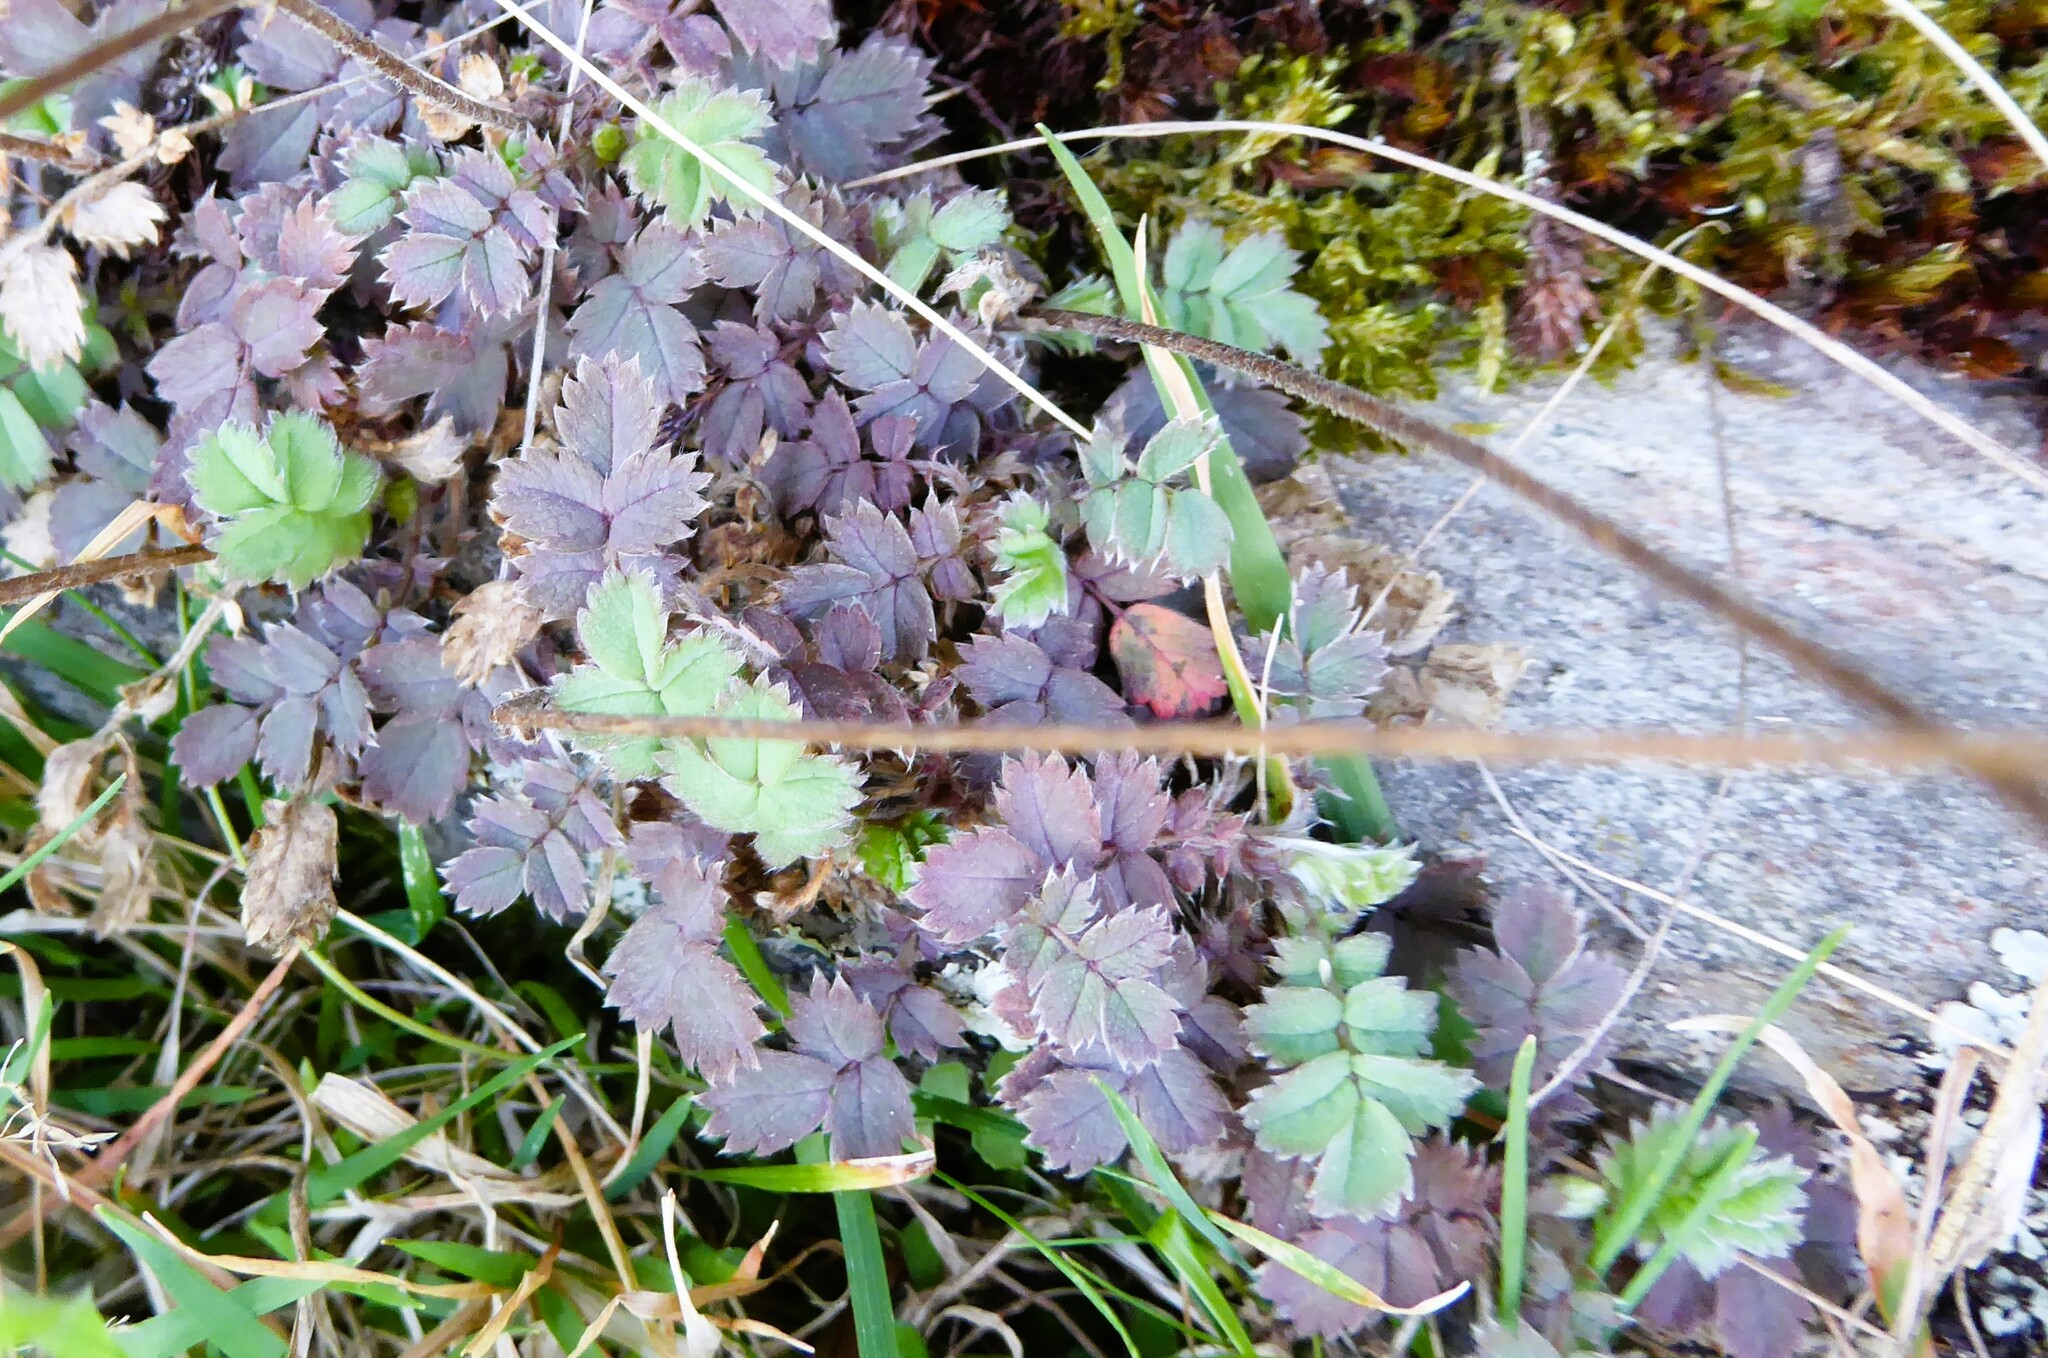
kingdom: Plantae
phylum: Tracheophyta
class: Magnoliopsida
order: Rosales
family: Rosaceae
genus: Acaena
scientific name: Acaena caesiiglauca
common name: Glaucous pirri-pirri-bur
